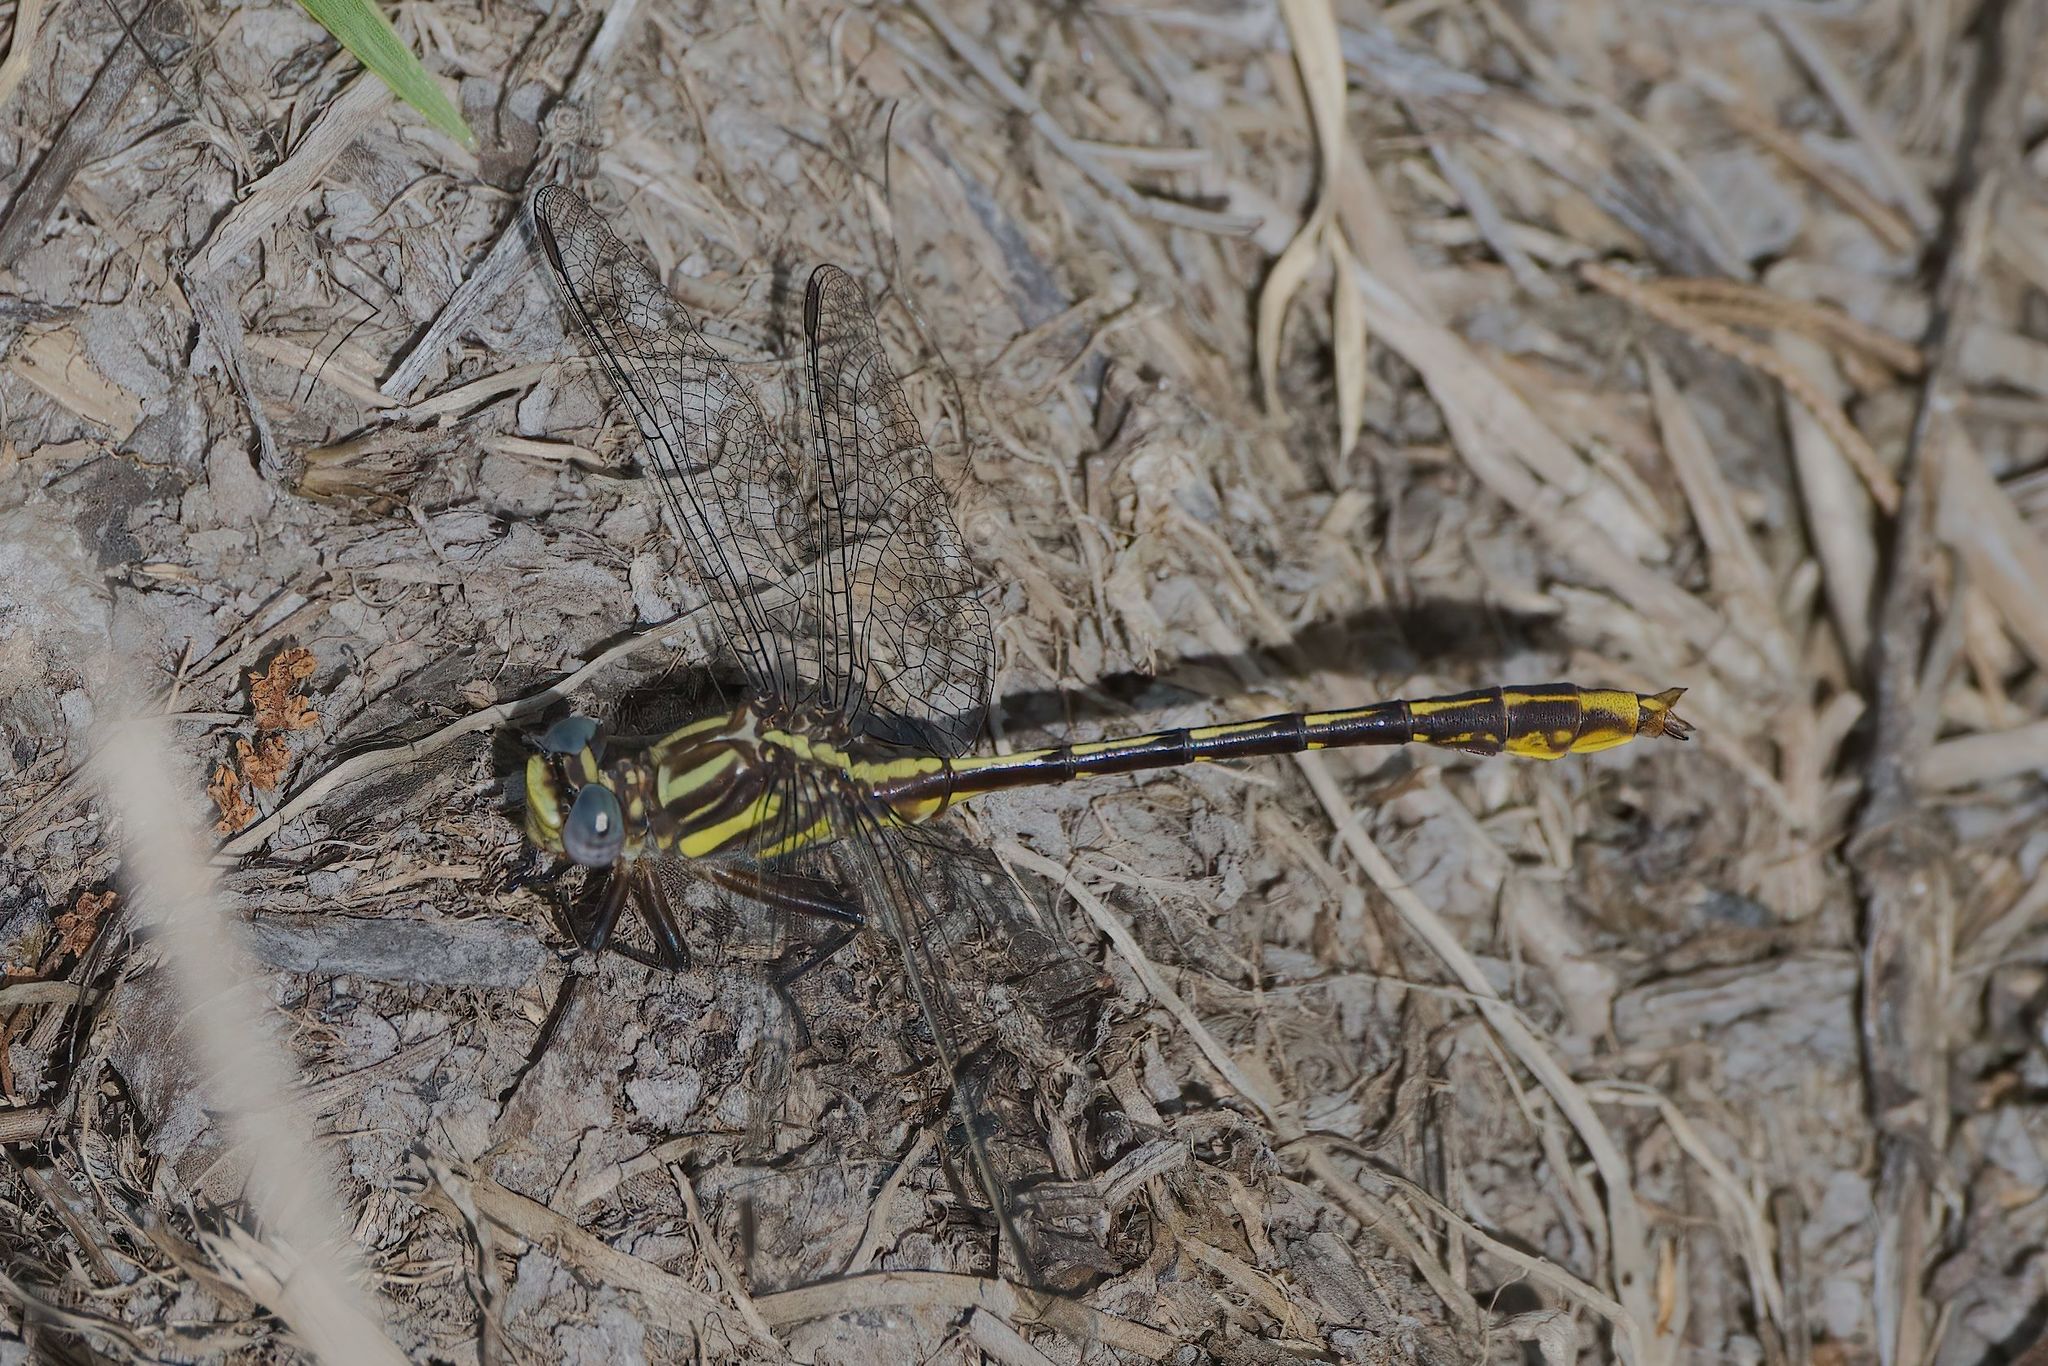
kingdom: Animalia
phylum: Arthropoda
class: Insecta
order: Odonata
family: Gomphidae
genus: Phanogomphus
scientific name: Phanogomphus exilis
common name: Lancet clubtail
